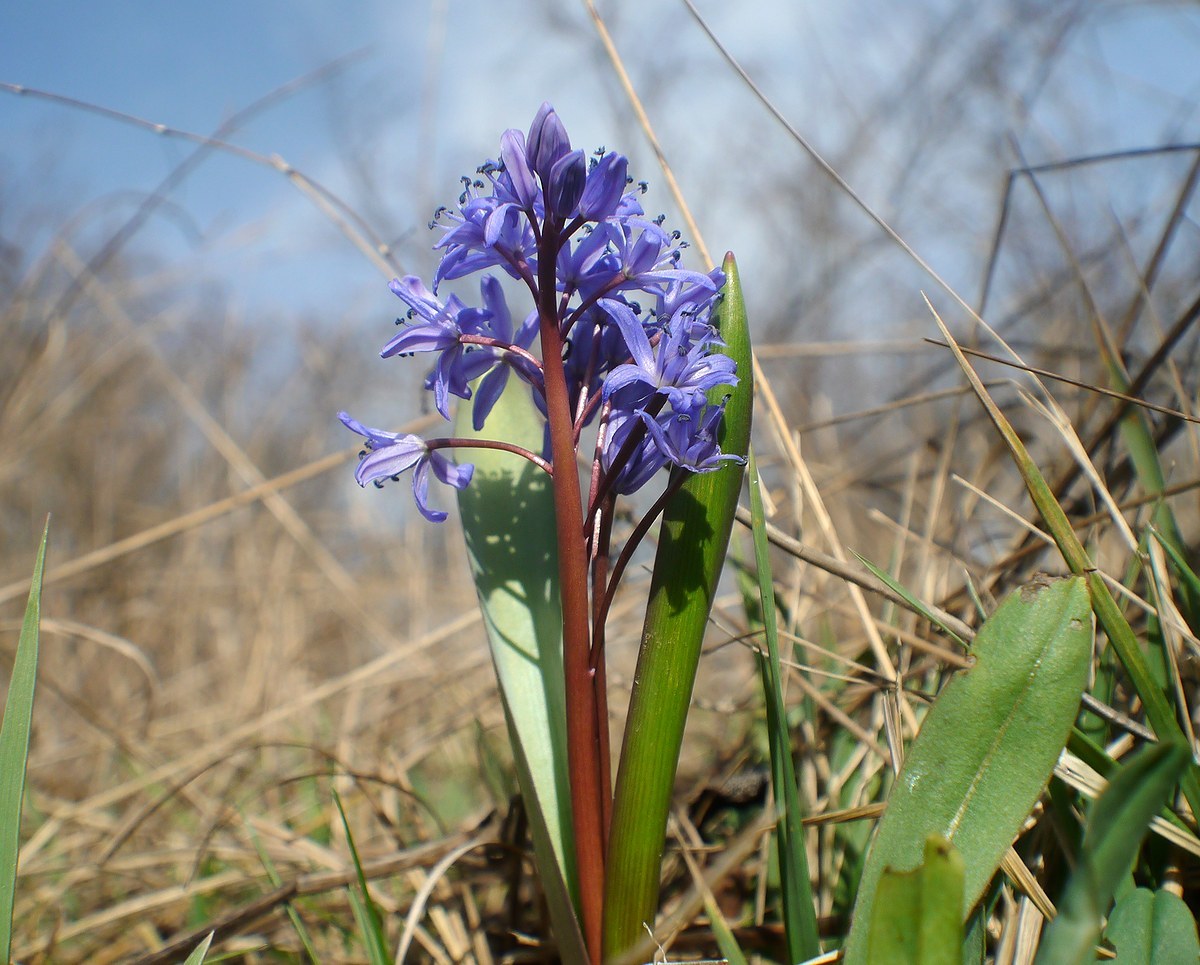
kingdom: Plantae
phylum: Tracheophyta
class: Liliopsida
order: Asparagales
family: Asparagaceae
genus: Scilla
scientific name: Scilla bifolia
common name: Alpine squill
